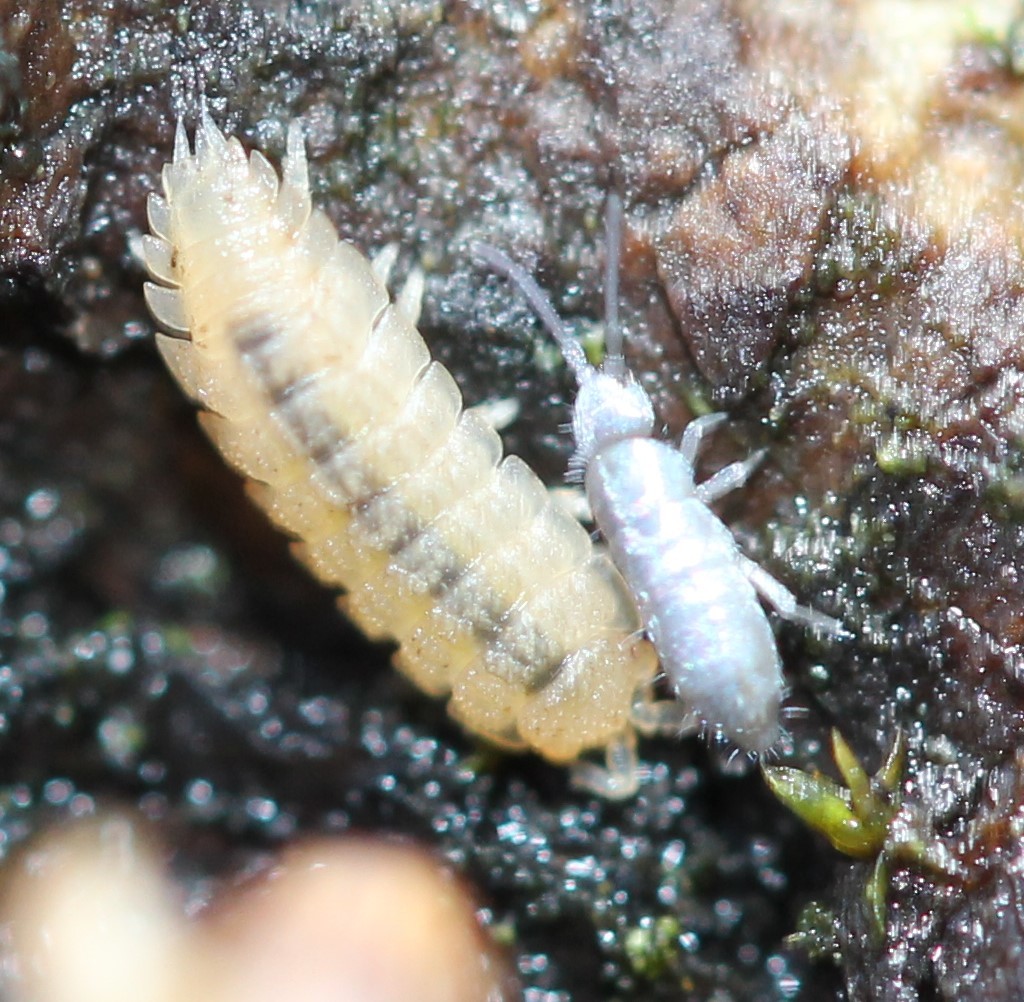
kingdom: Animalia
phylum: Arthropoda
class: Malacostraca
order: Isopoda
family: Trichoniscidae
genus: Haplophthalmus
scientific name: Haplophthalmus danicus
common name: Pillbug
